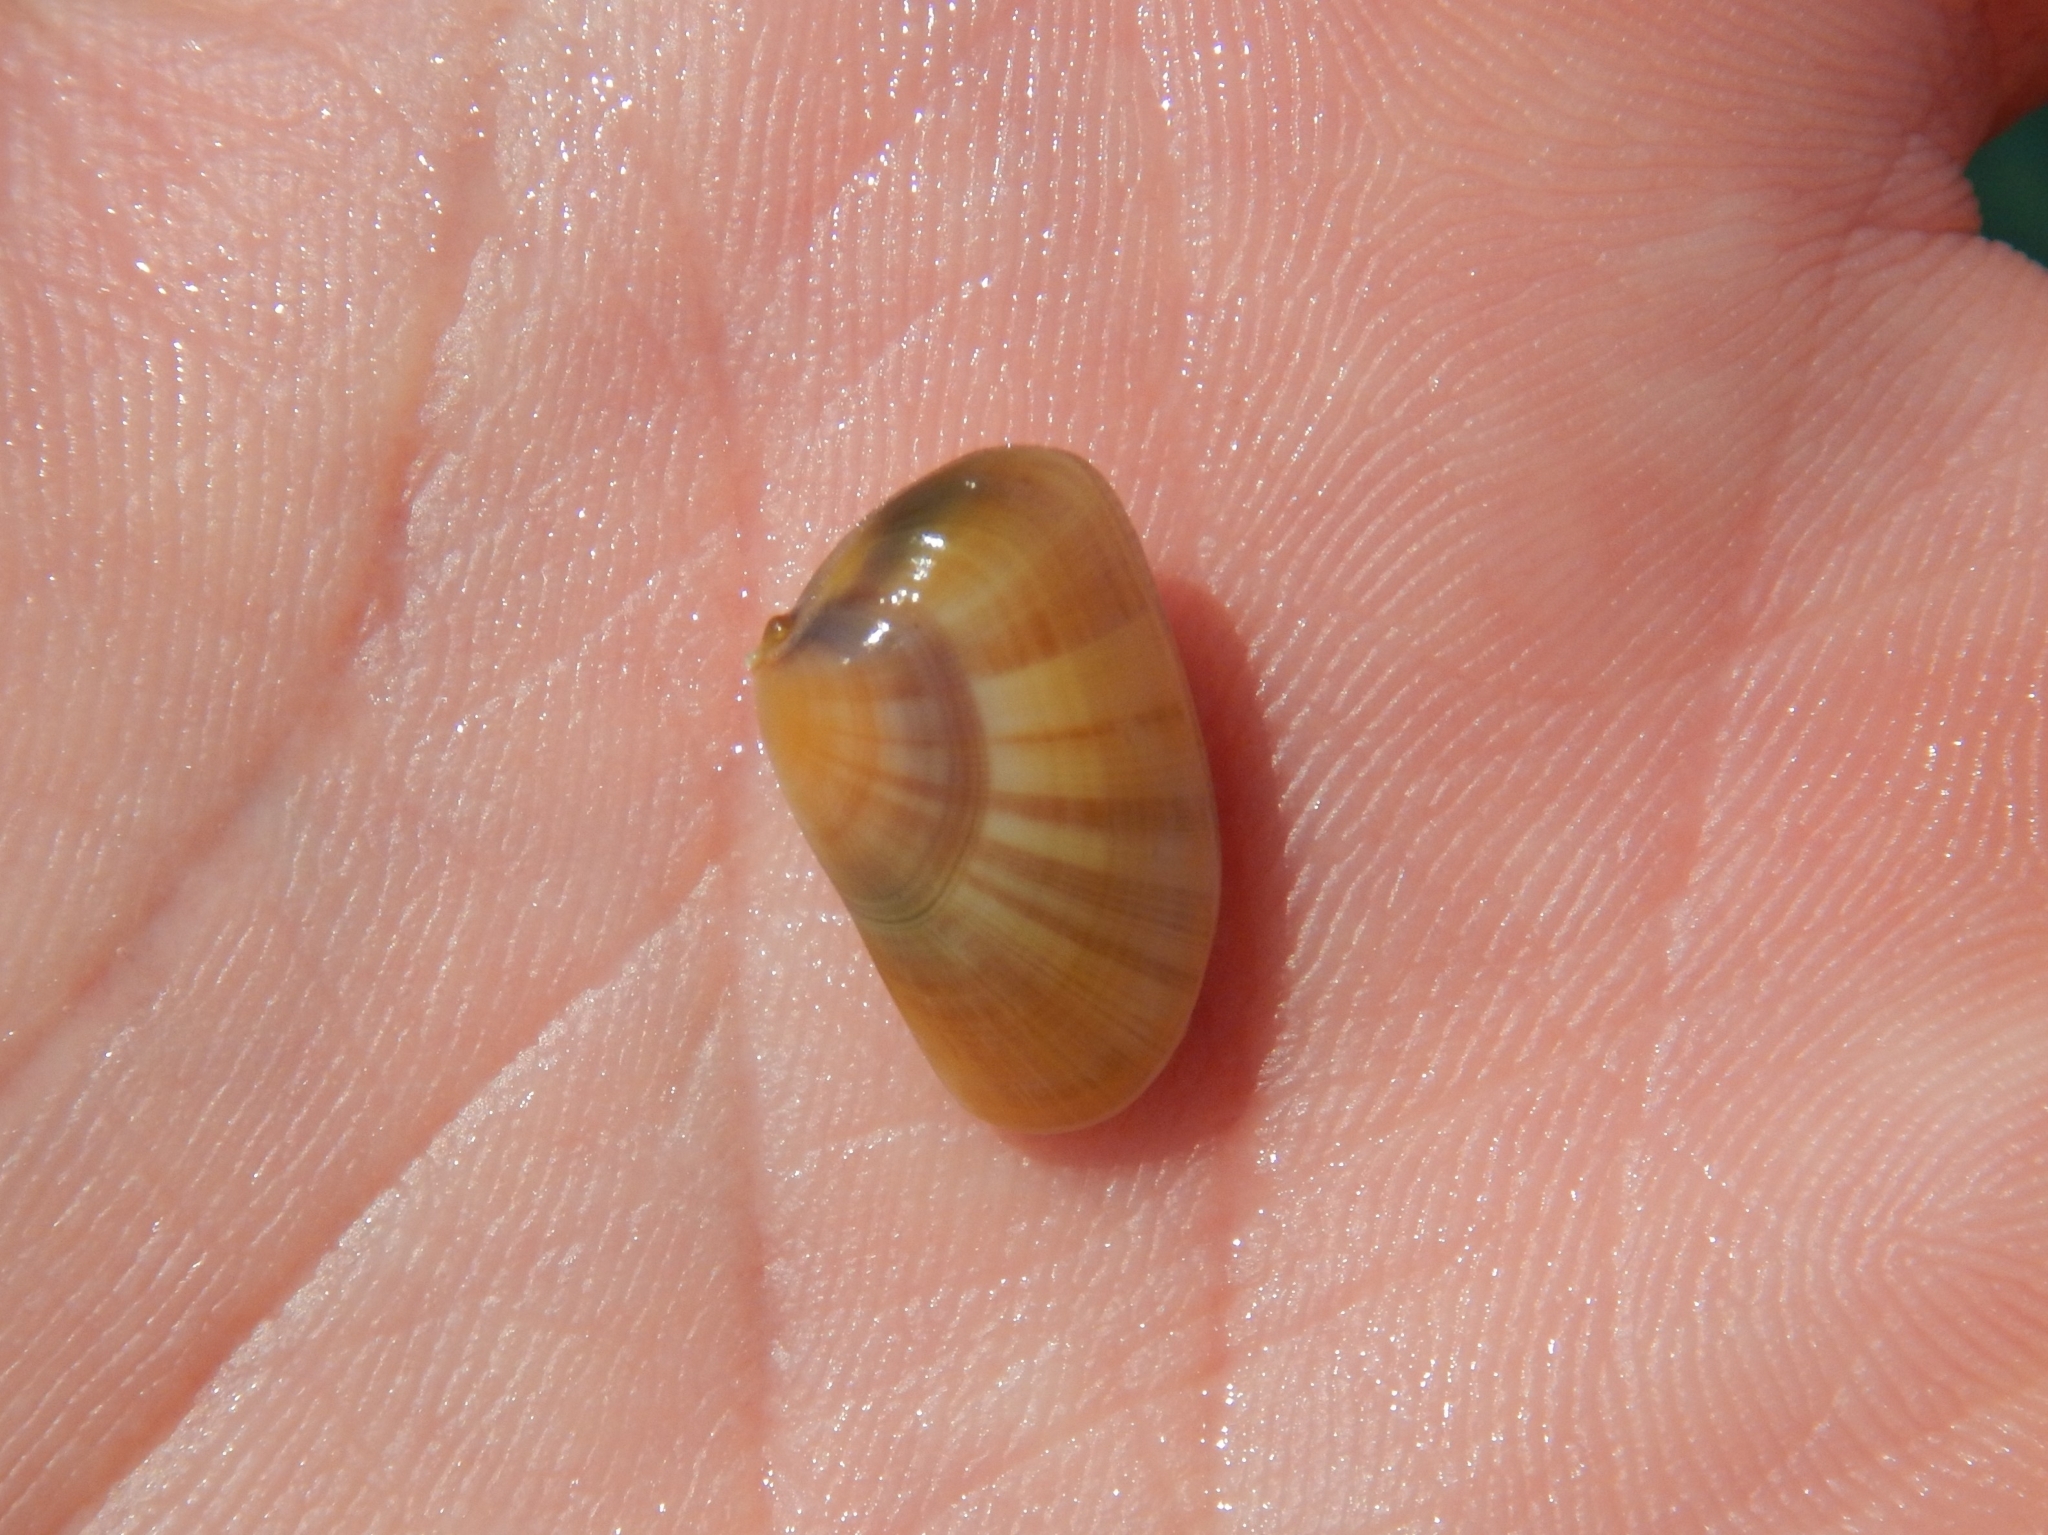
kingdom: Animalia
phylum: Mollusca
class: Bivalvia
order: Cardiida
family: Donacidae
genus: Donax
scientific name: Donax trunculus
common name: Truncate donax
